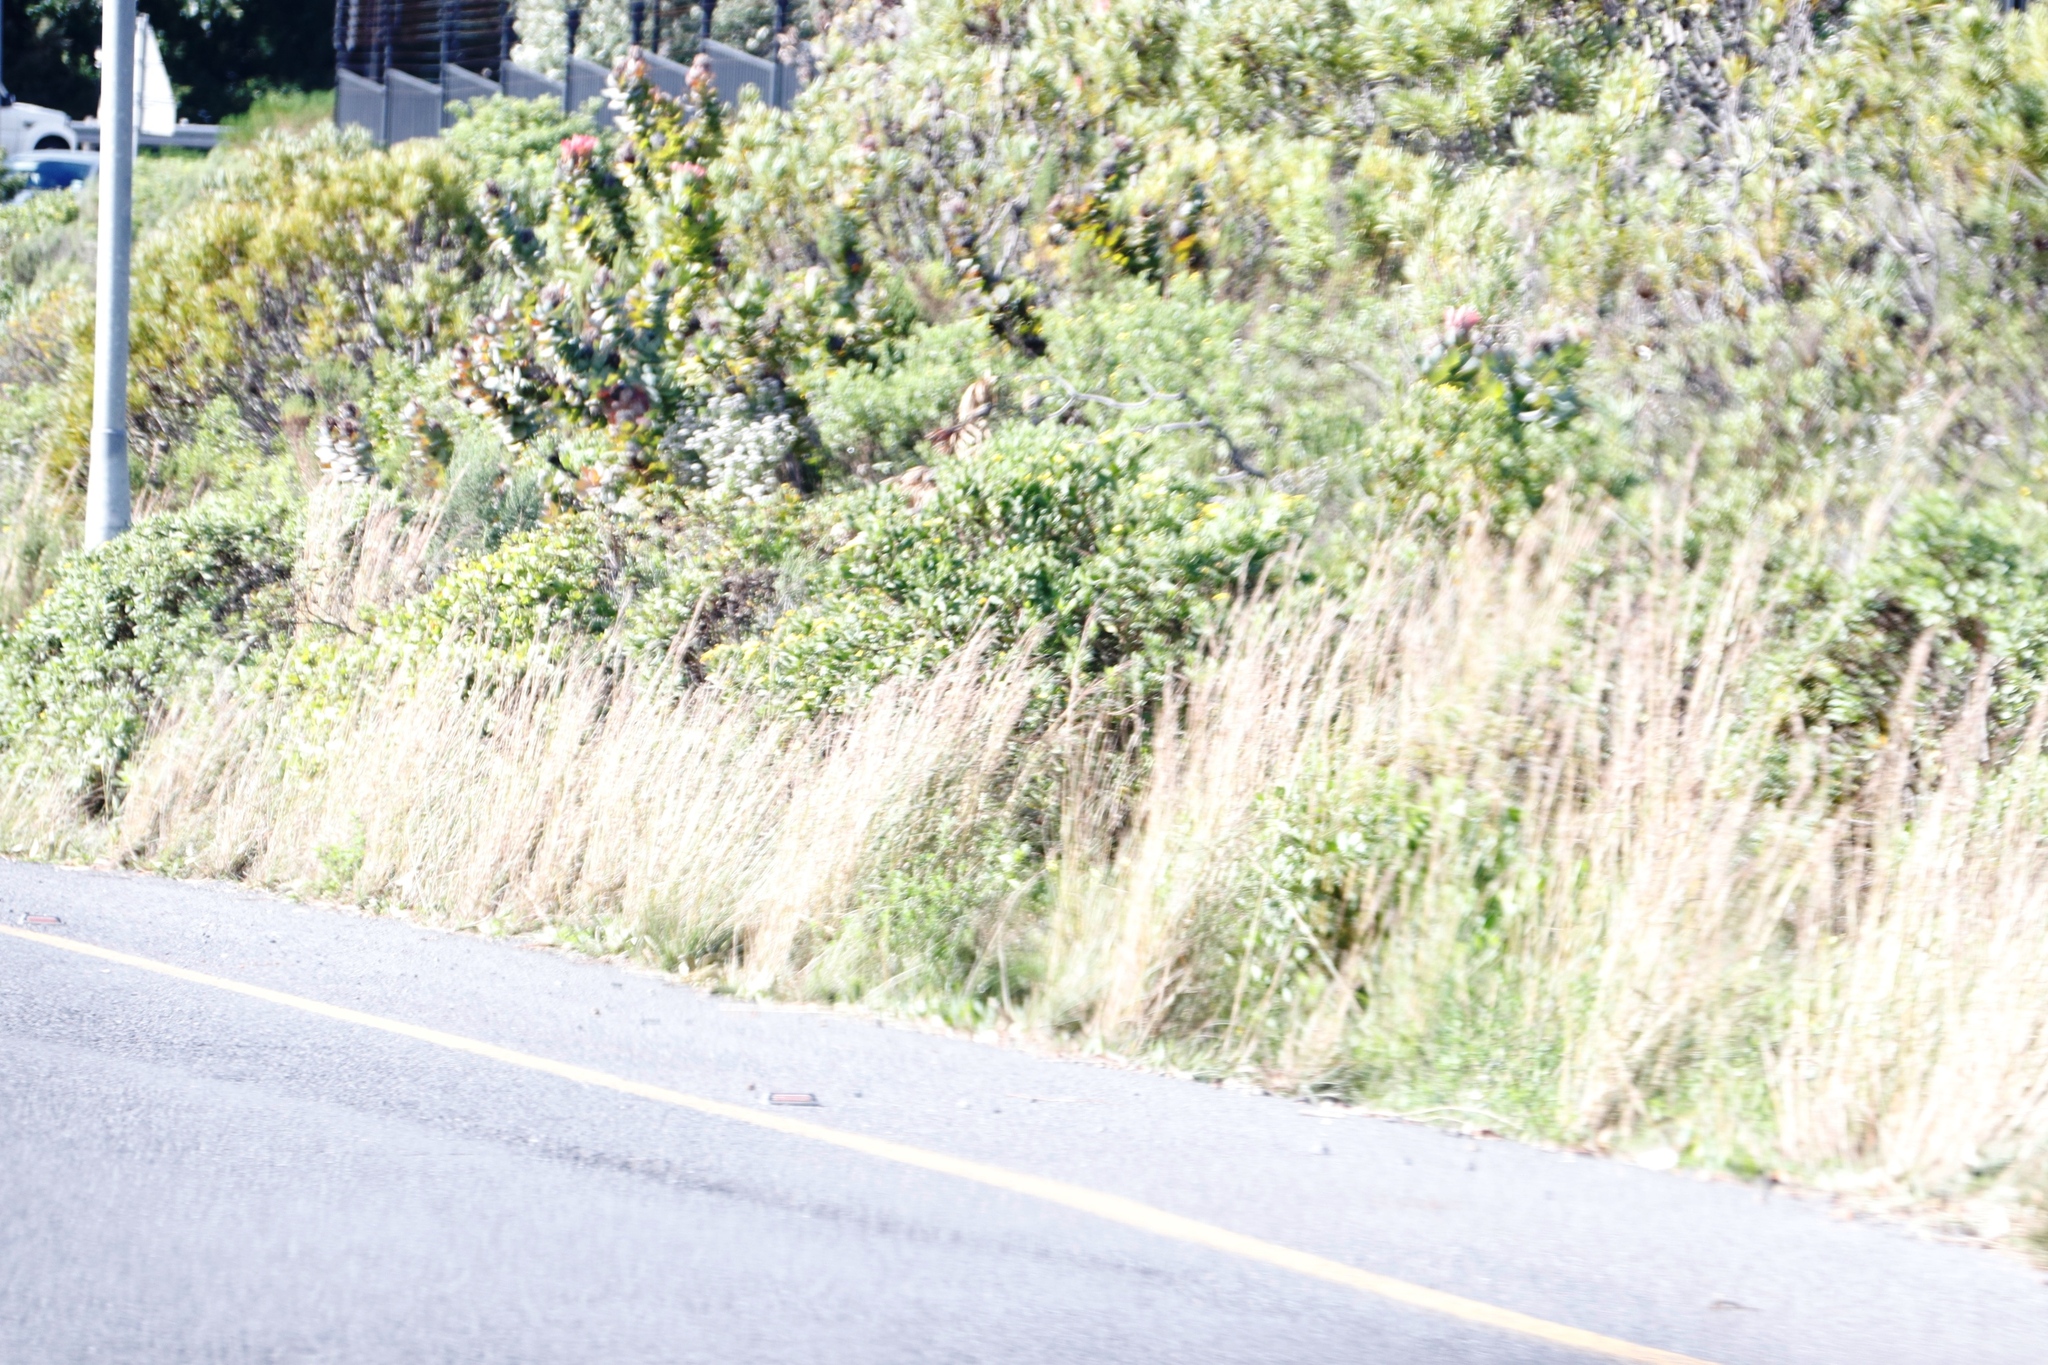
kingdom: Plantae
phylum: Tracheophyta
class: Magnoliopsida
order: Proteales
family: Proteaceae
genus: Protea
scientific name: Protea eximia
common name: Broad-leaved sugarbush
